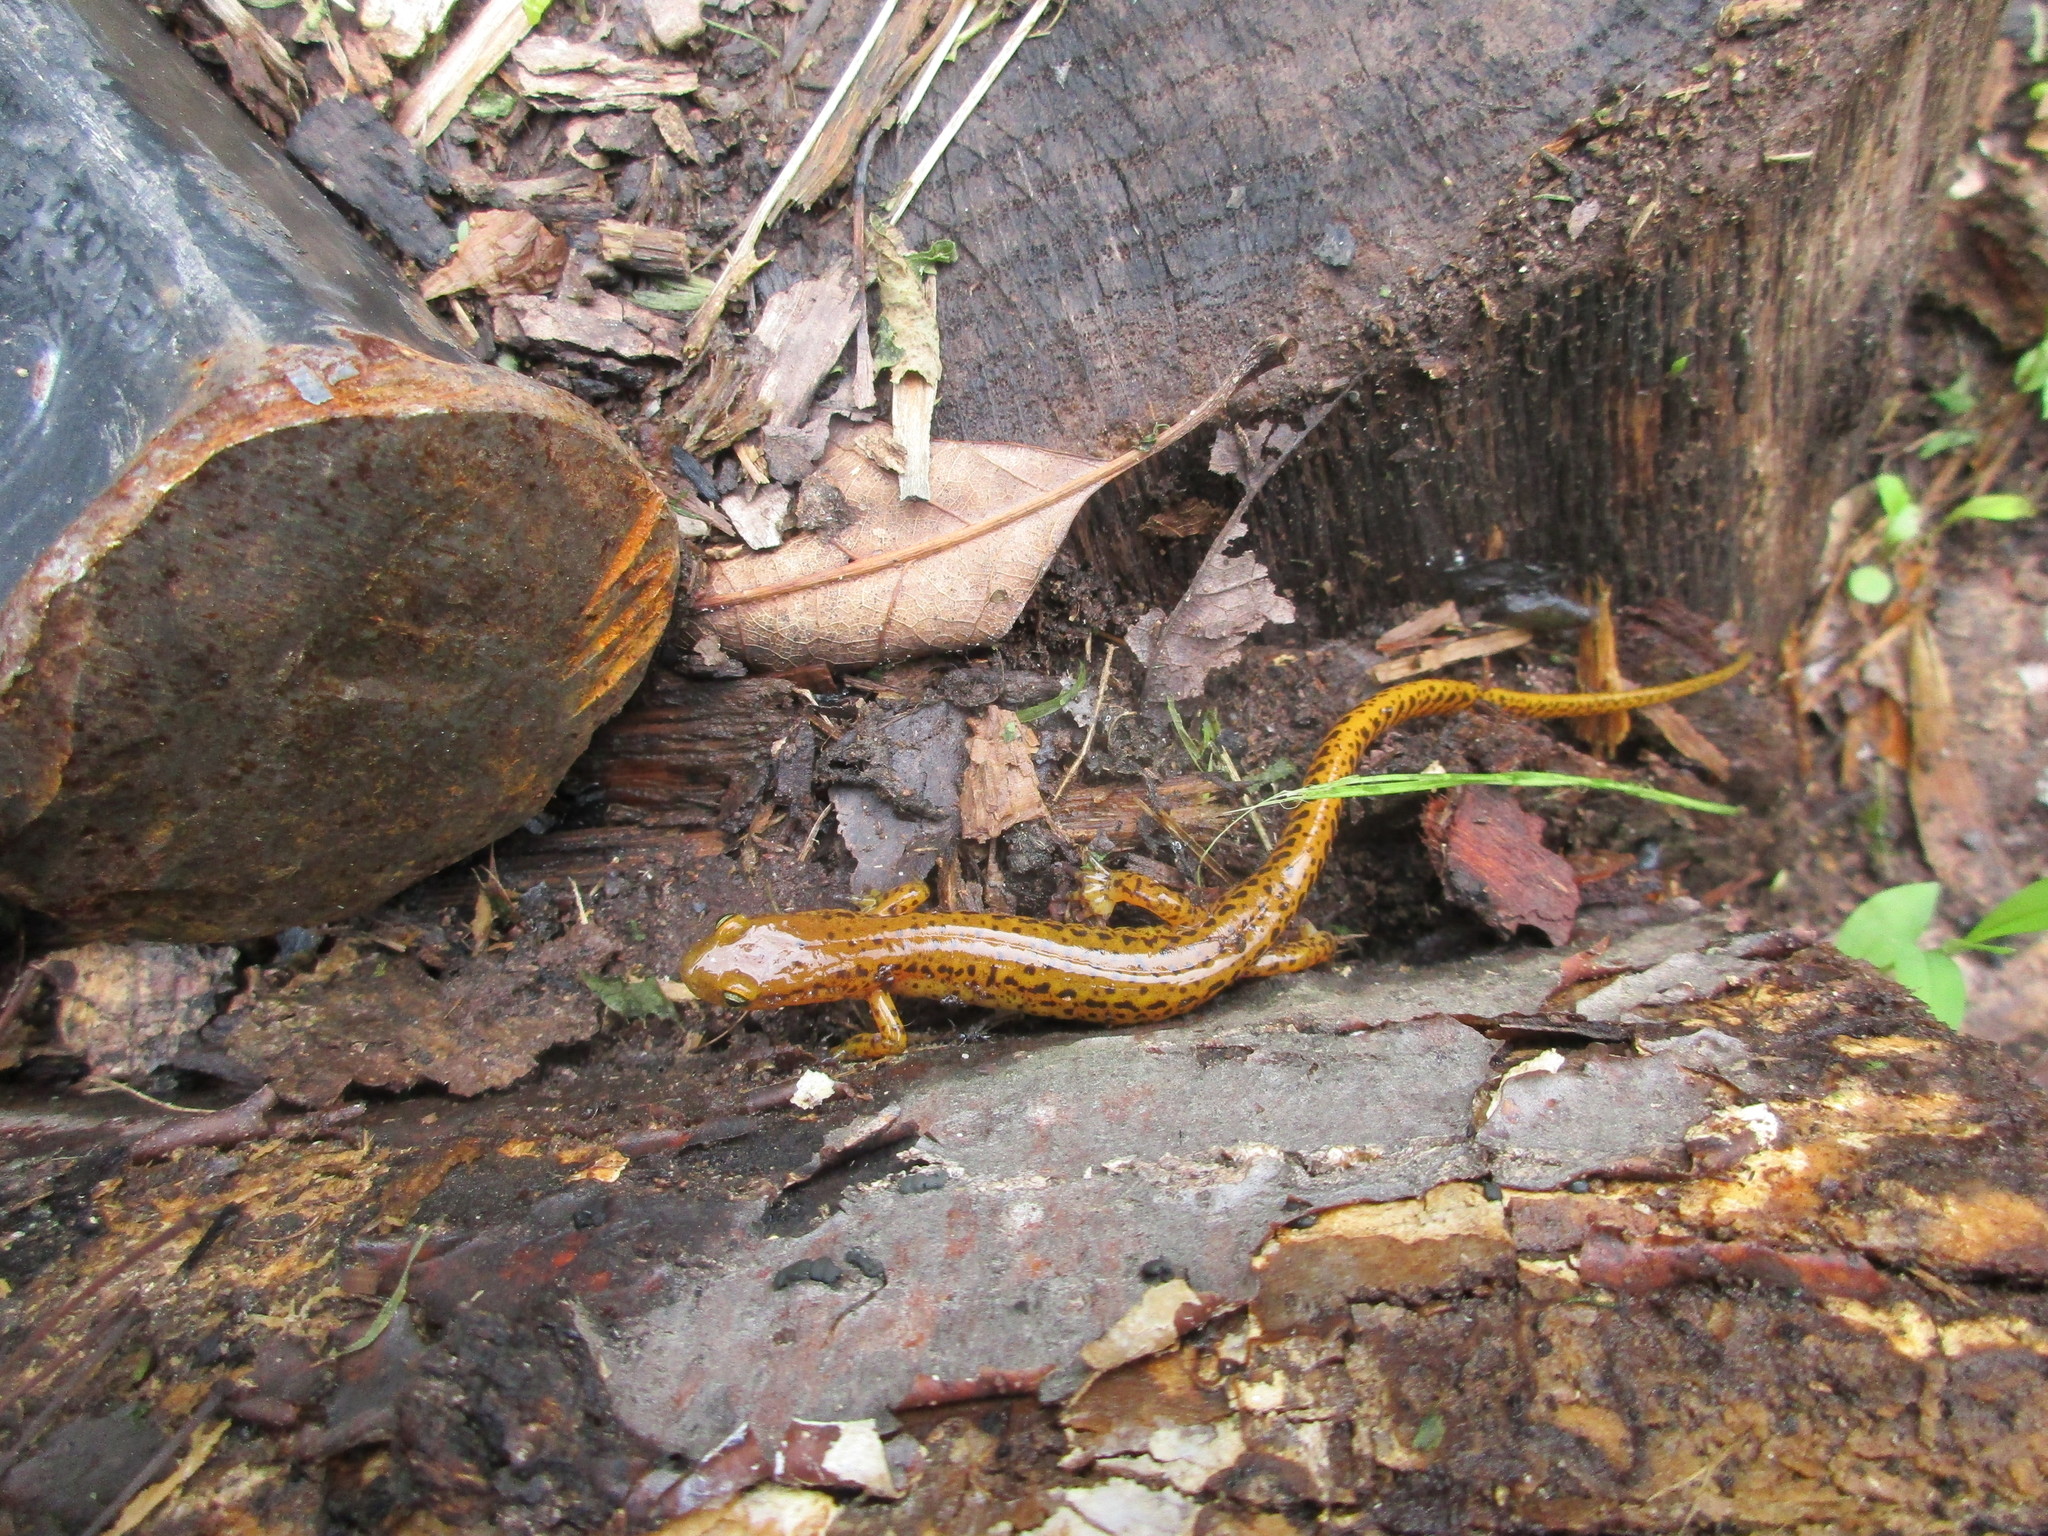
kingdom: Animalia
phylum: Chordata
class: Amphibia
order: Caudata
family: Plethodontidae
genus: Eurycea
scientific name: Eurycea longicauda
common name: Long-tailed salamander
